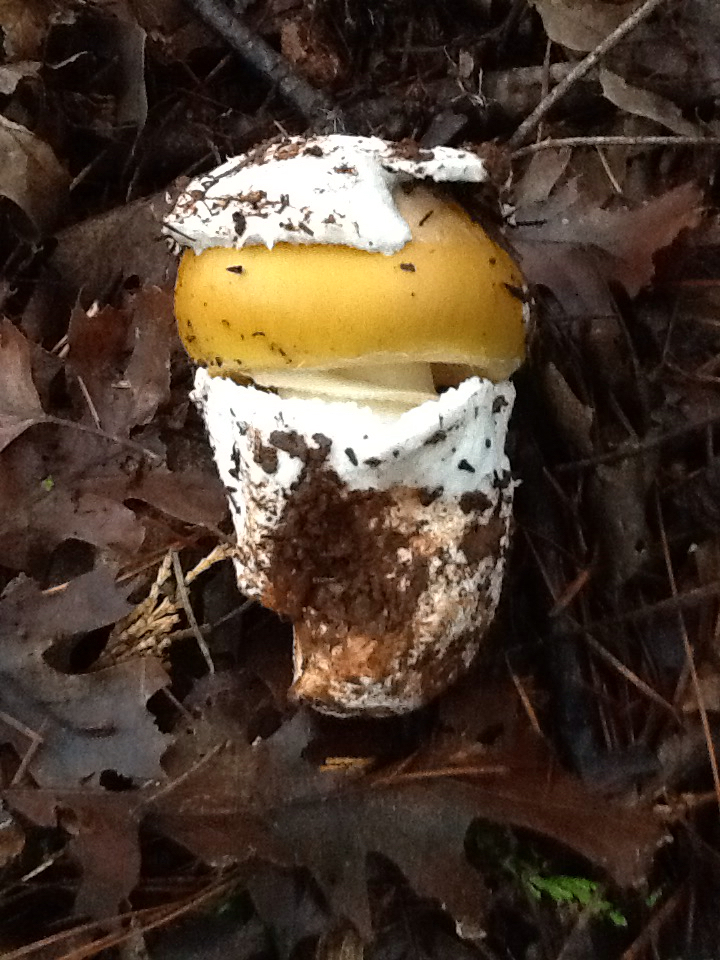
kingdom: Fungi
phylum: Basidiomycota
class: Agaricomycetes
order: Agaricales
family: Amanitaceae
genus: Amanita
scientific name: Amanita calyptroderma
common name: Coccora
